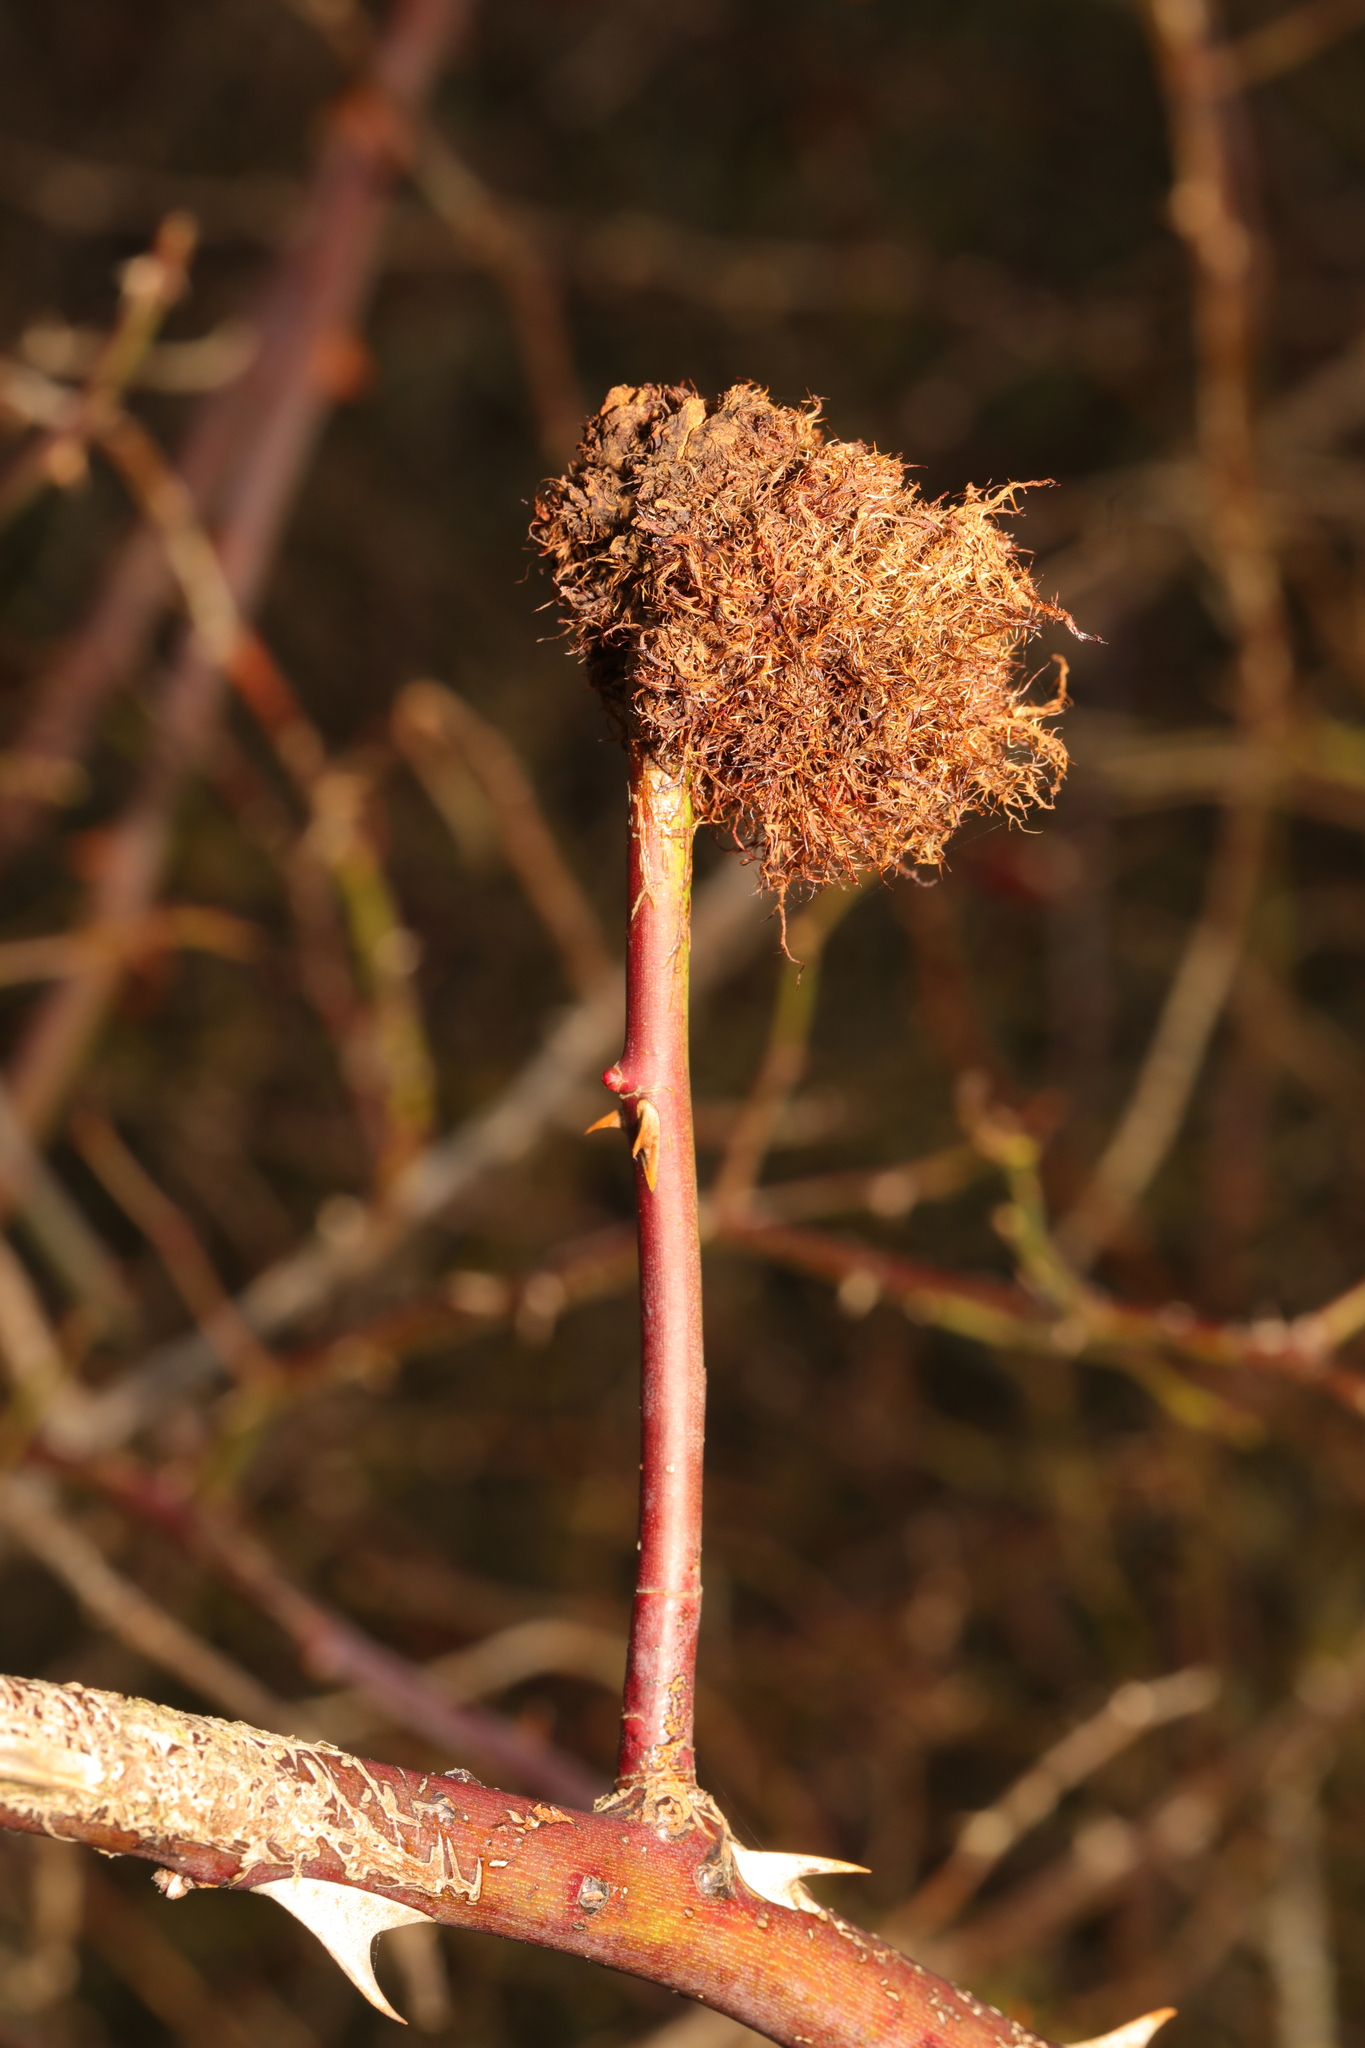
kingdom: Animalia
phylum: Arthropoda
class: Insecta
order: Hymenoptera
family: Cynipidae
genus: Diplolepis
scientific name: Diplolepis rosae
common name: Bedeguar gall
